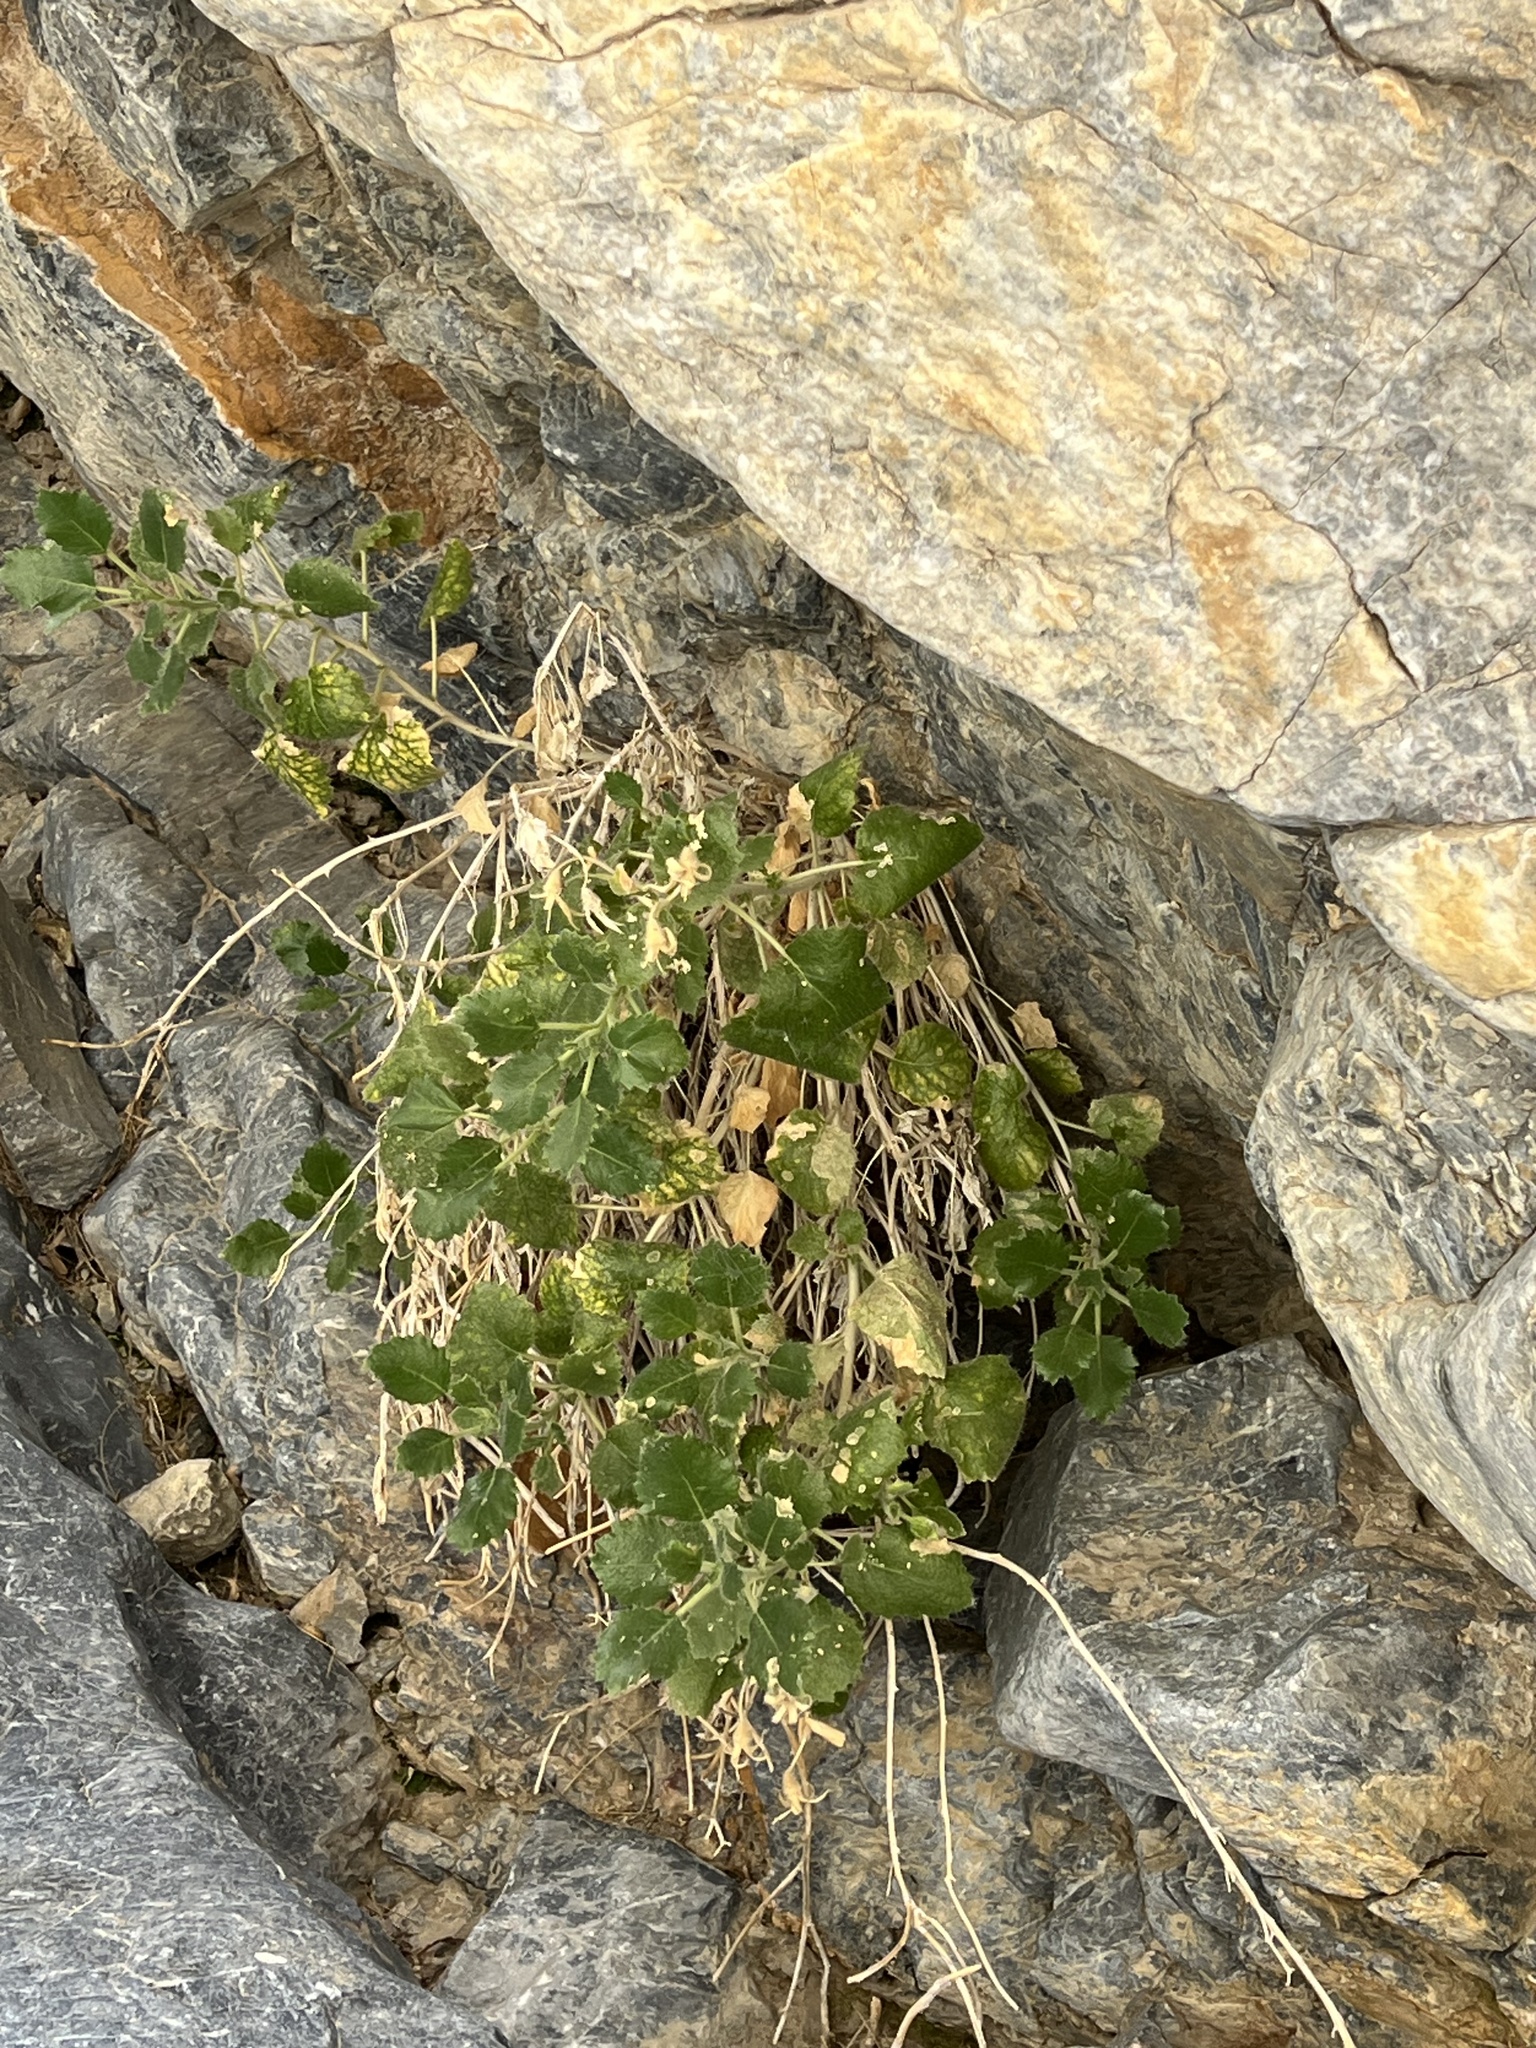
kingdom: Plantae
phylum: Tracheophyta
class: Magnoliopsida
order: Cornales
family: Loasaceae
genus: Eucnide
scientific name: Eucnide urens
